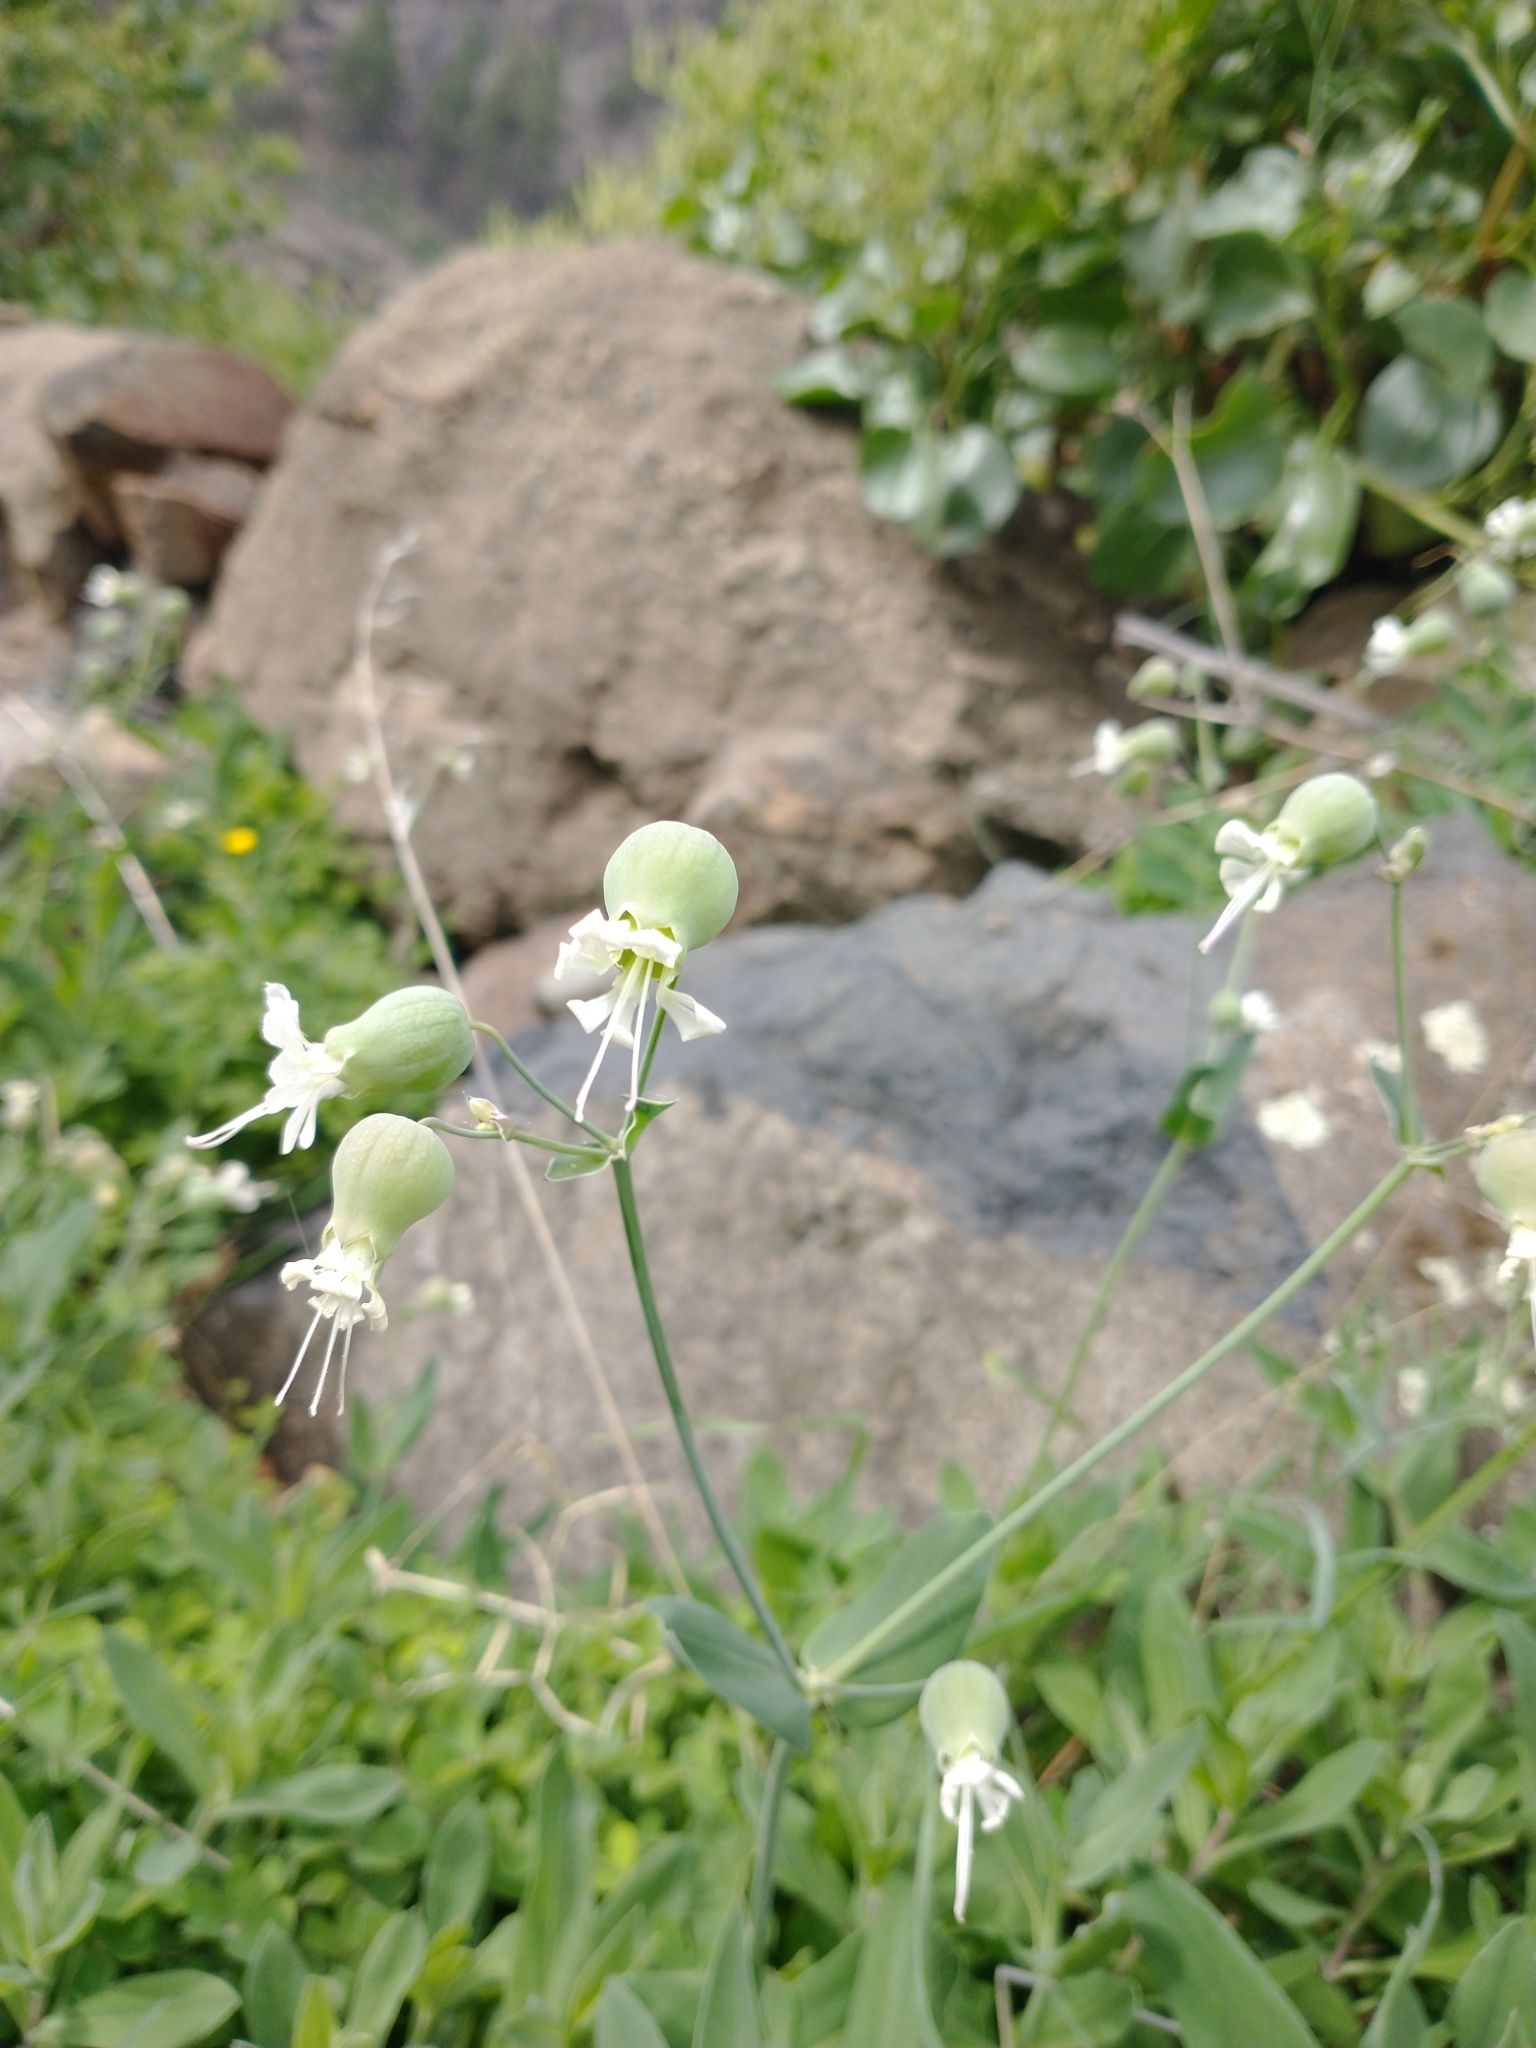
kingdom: Plantae
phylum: Tracheophyta
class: Magnoliopsida
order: Caryophyllales
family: Caryophyllaceae
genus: Silene
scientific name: Silene vulgaris
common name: Bladder campion
